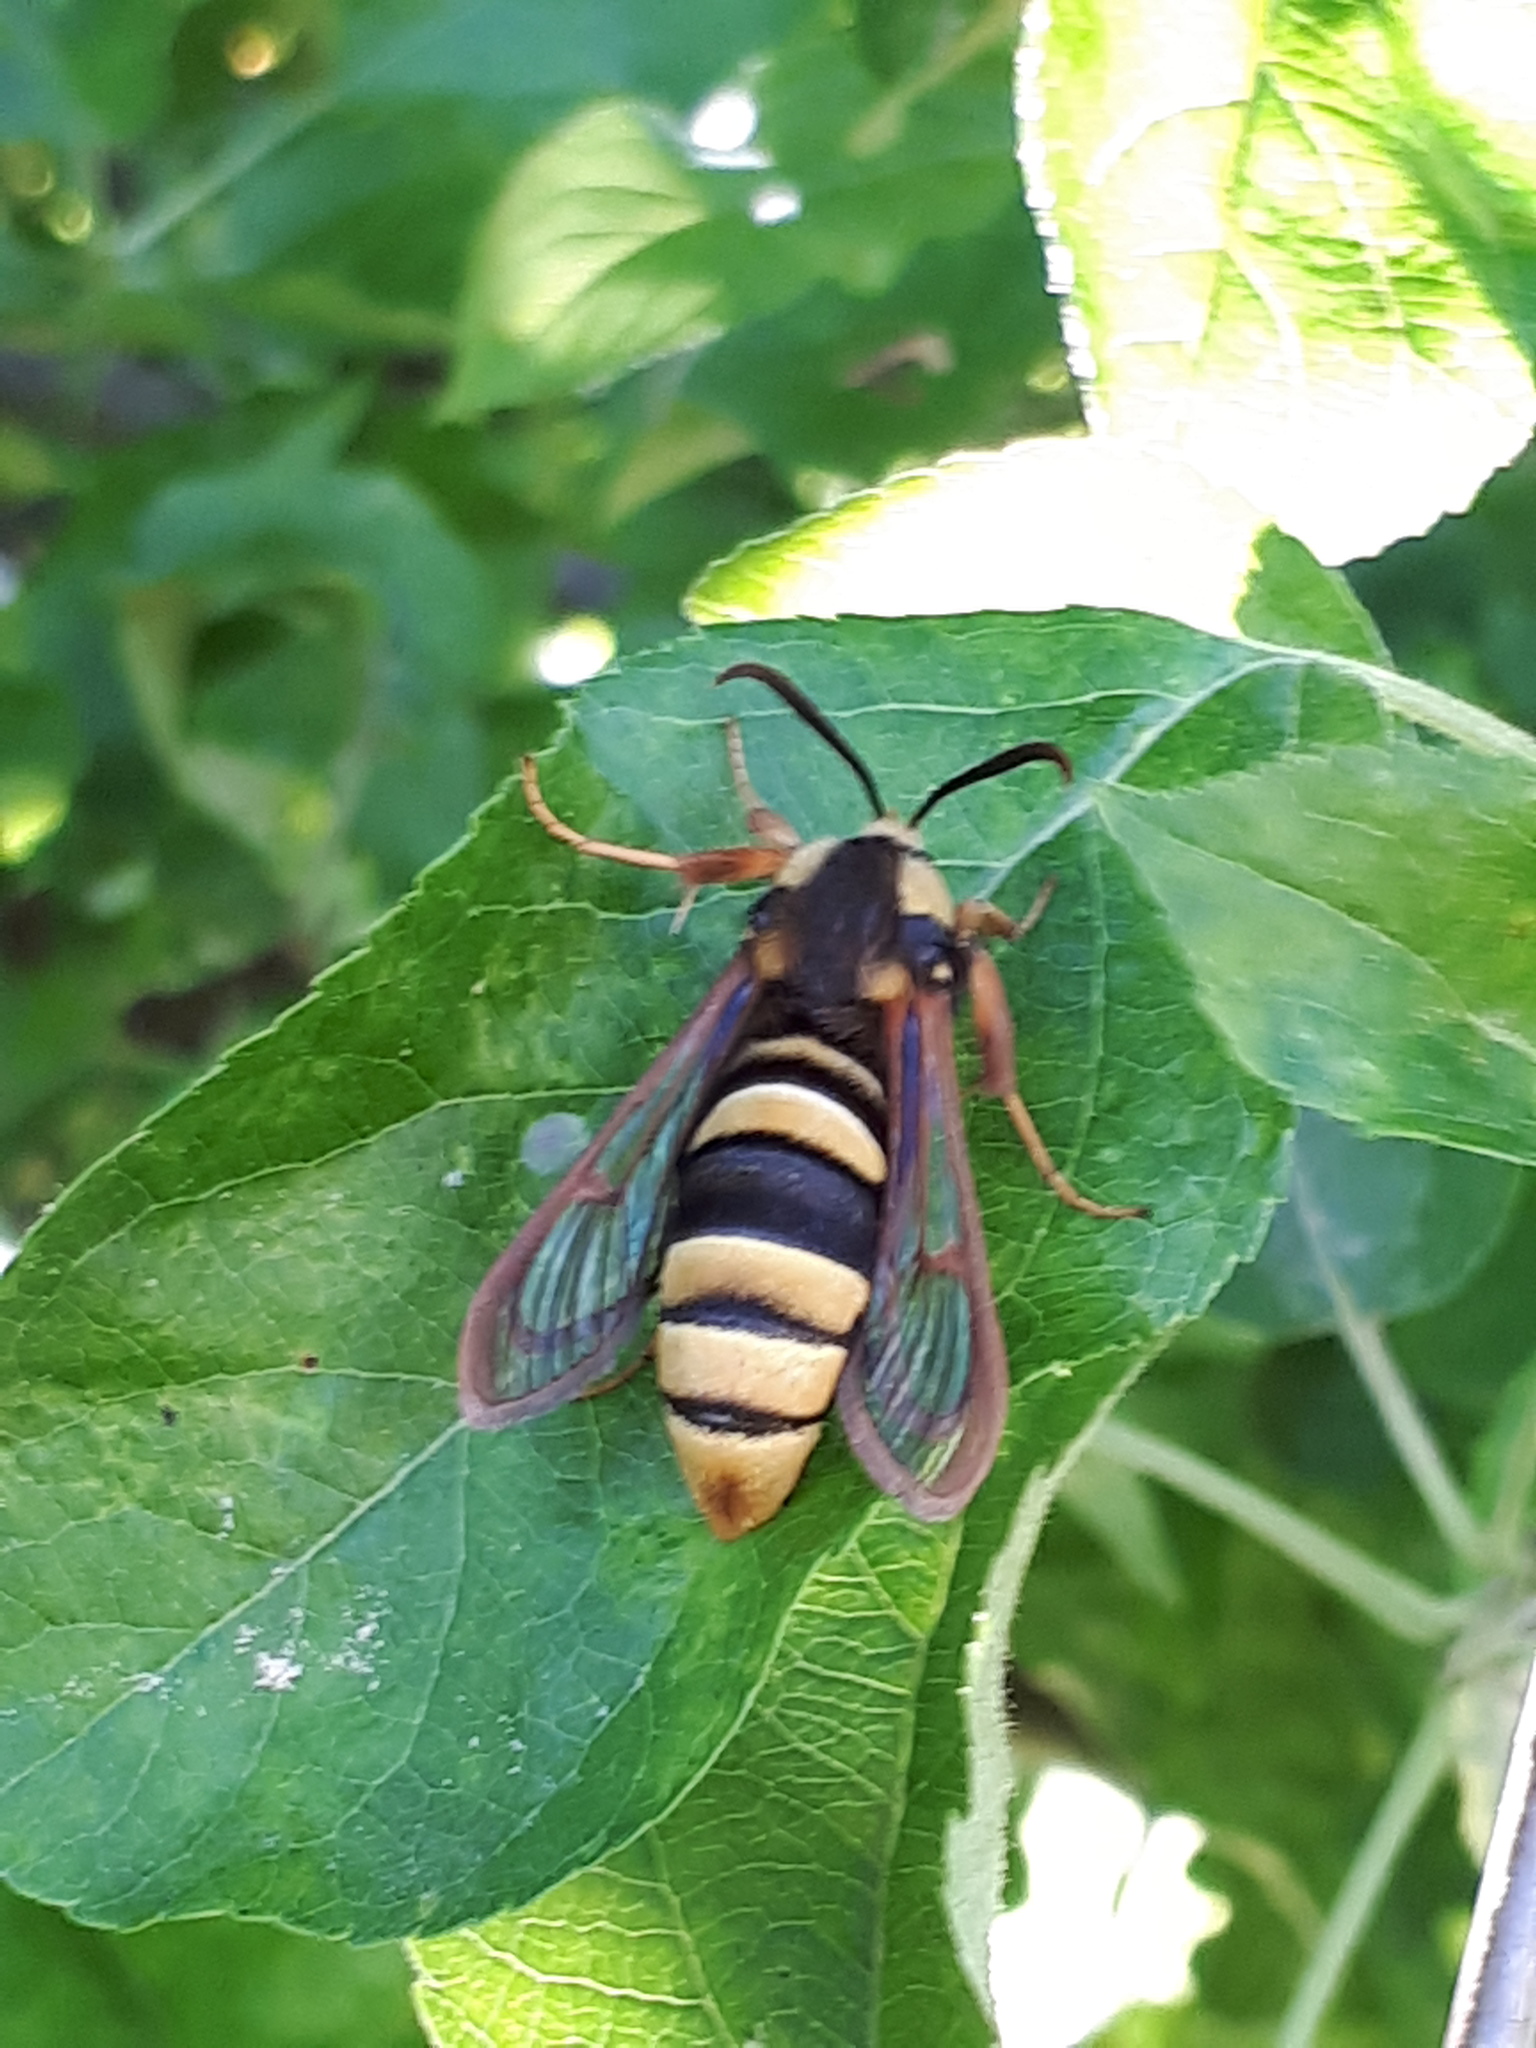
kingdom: Animalia
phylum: Arthropoda
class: Insecta
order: Lepidoptera
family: Sesiidae
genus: Sesia
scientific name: Sesia apiformis
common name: Hornet moth
